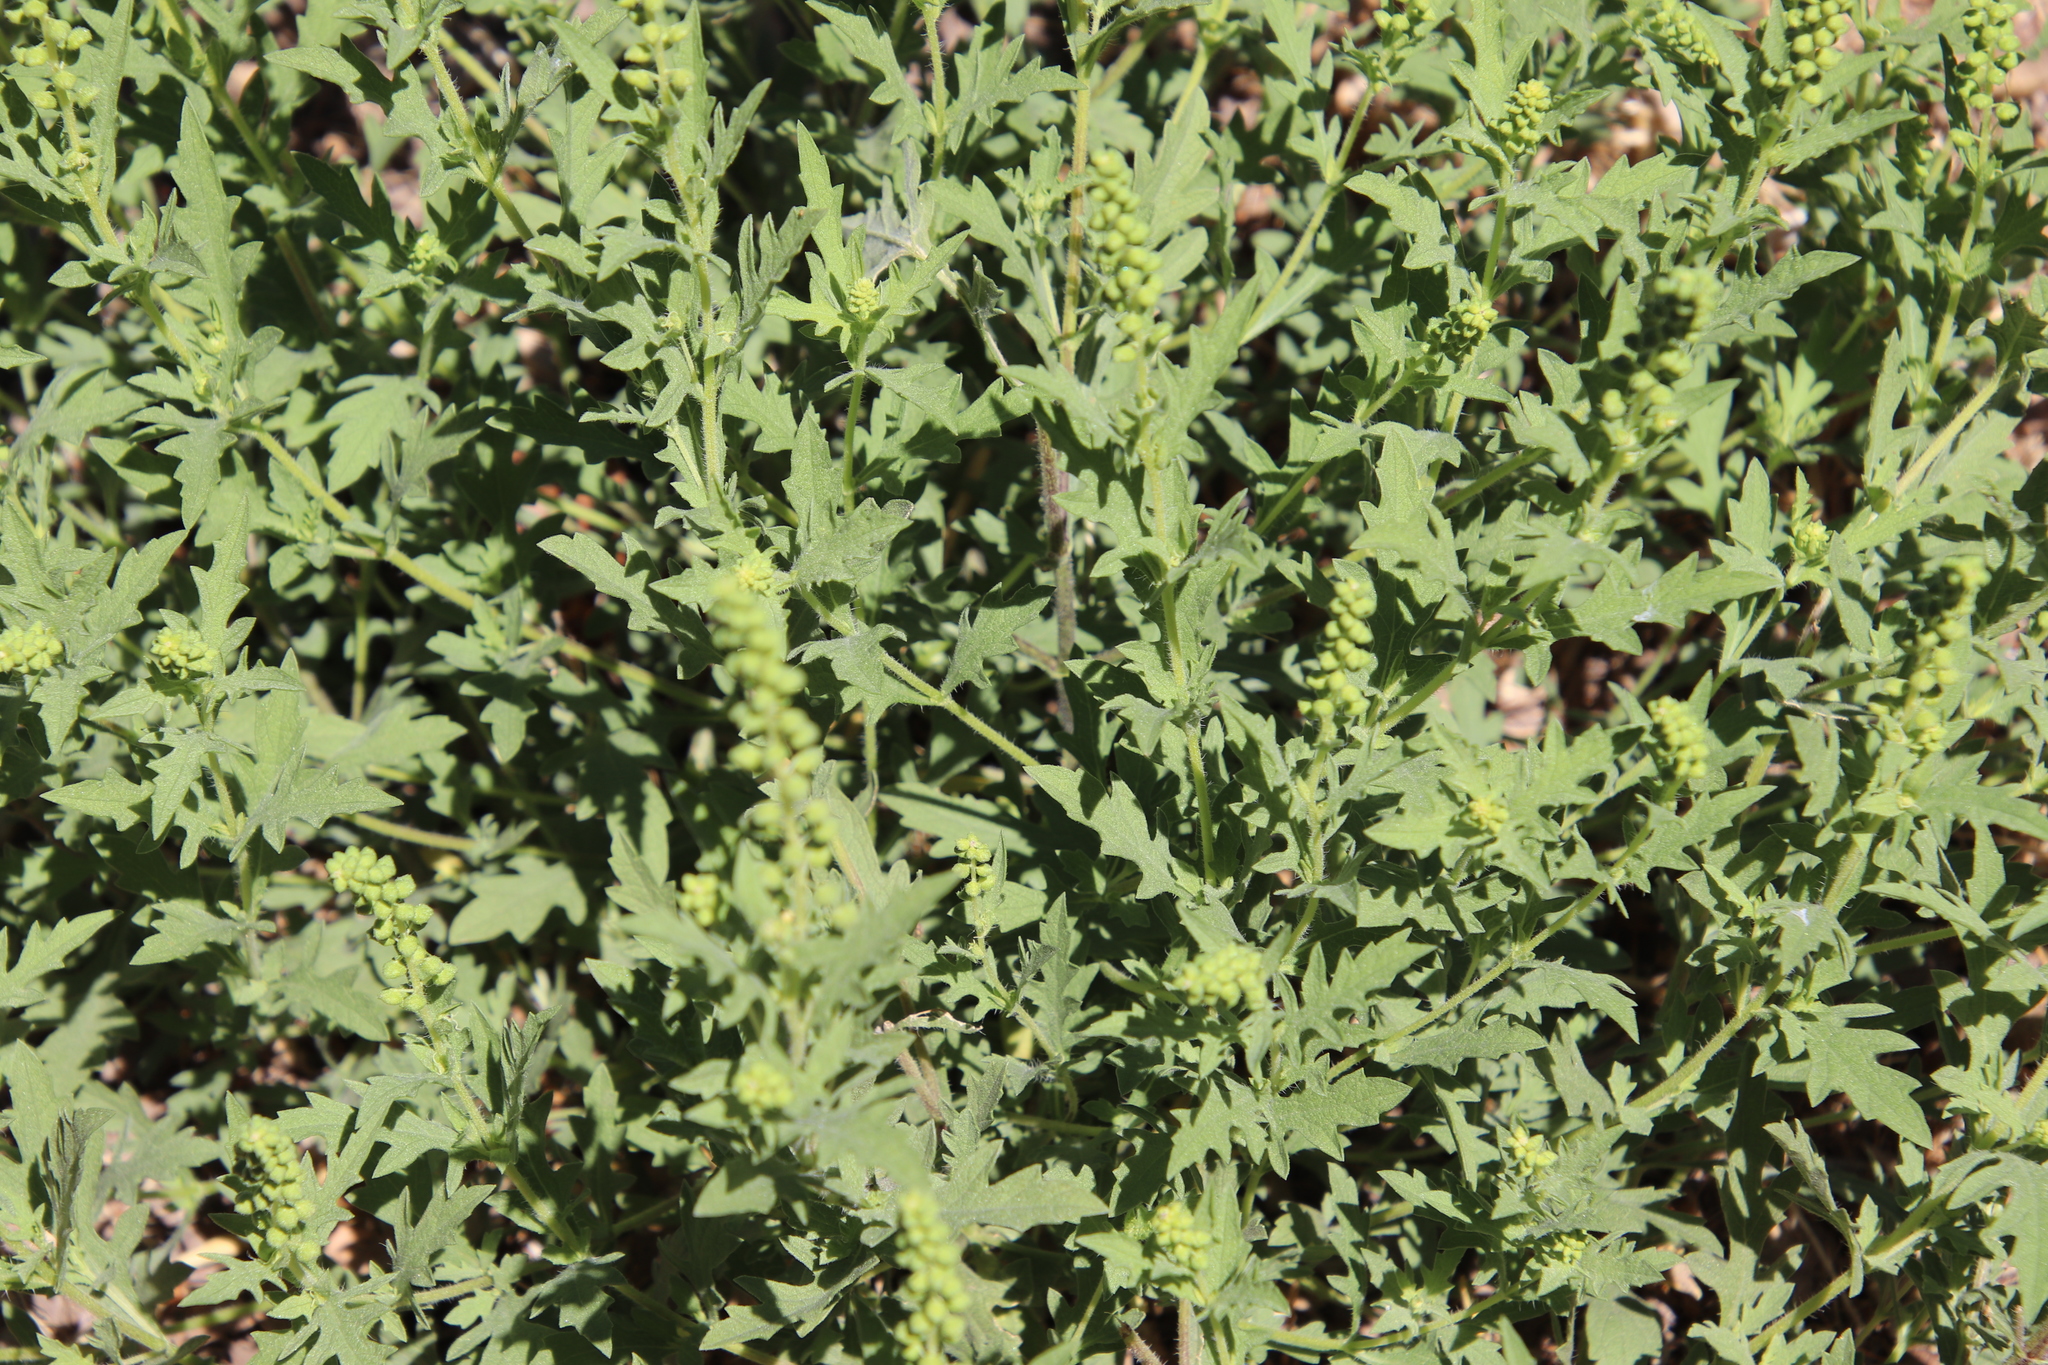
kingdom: Plantae
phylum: Tracheophyta
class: Magnoliopsida
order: Asterales
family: Asteraceae
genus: Ambrosia
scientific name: Ambrosia psilostachya
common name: Perennial ragweed
